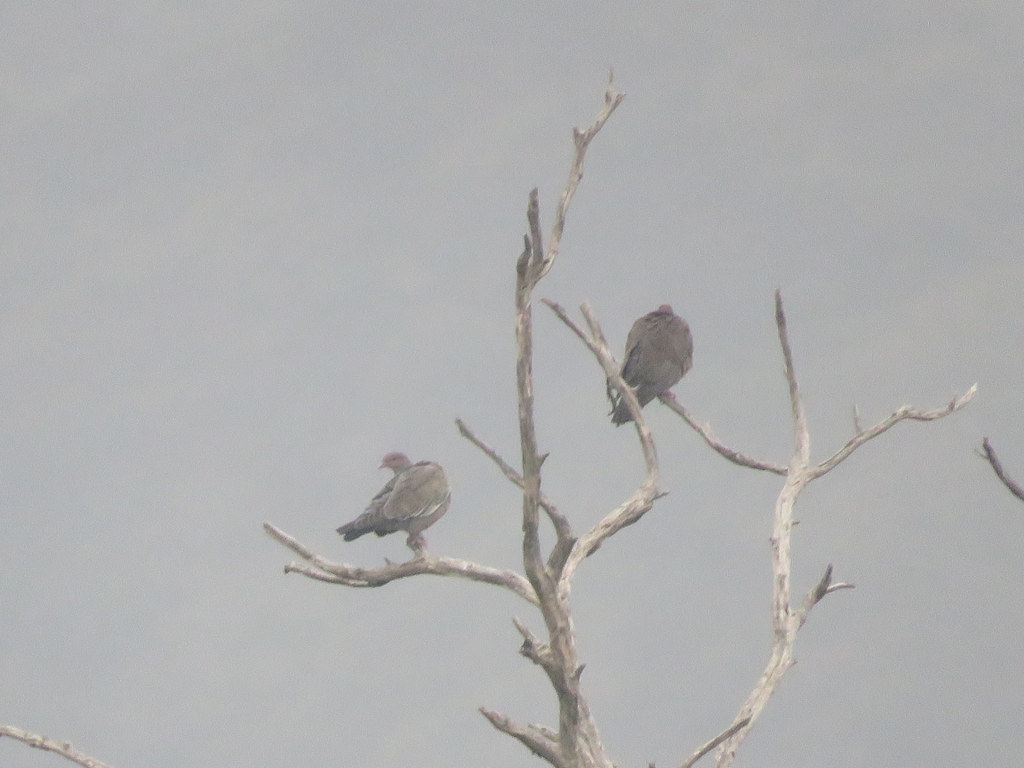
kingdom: Animalia
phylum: Chordata
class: Aves
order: Columbiformes
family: Columbidae
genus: Patagioenas
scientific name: Patagioenas picazuro
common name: Picazuro pigeon
